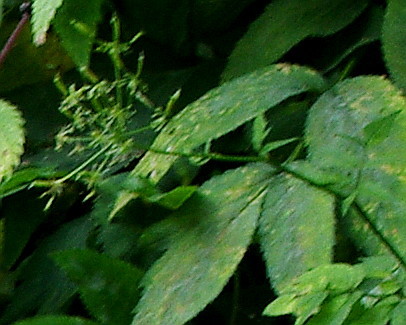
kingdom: Plantae
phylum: Tracheophyta
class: Magnoliopsida
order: Apiales
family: Apiaceae
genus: Aegopodium
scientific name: Aegopodium podagraria
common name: Ground-elder
